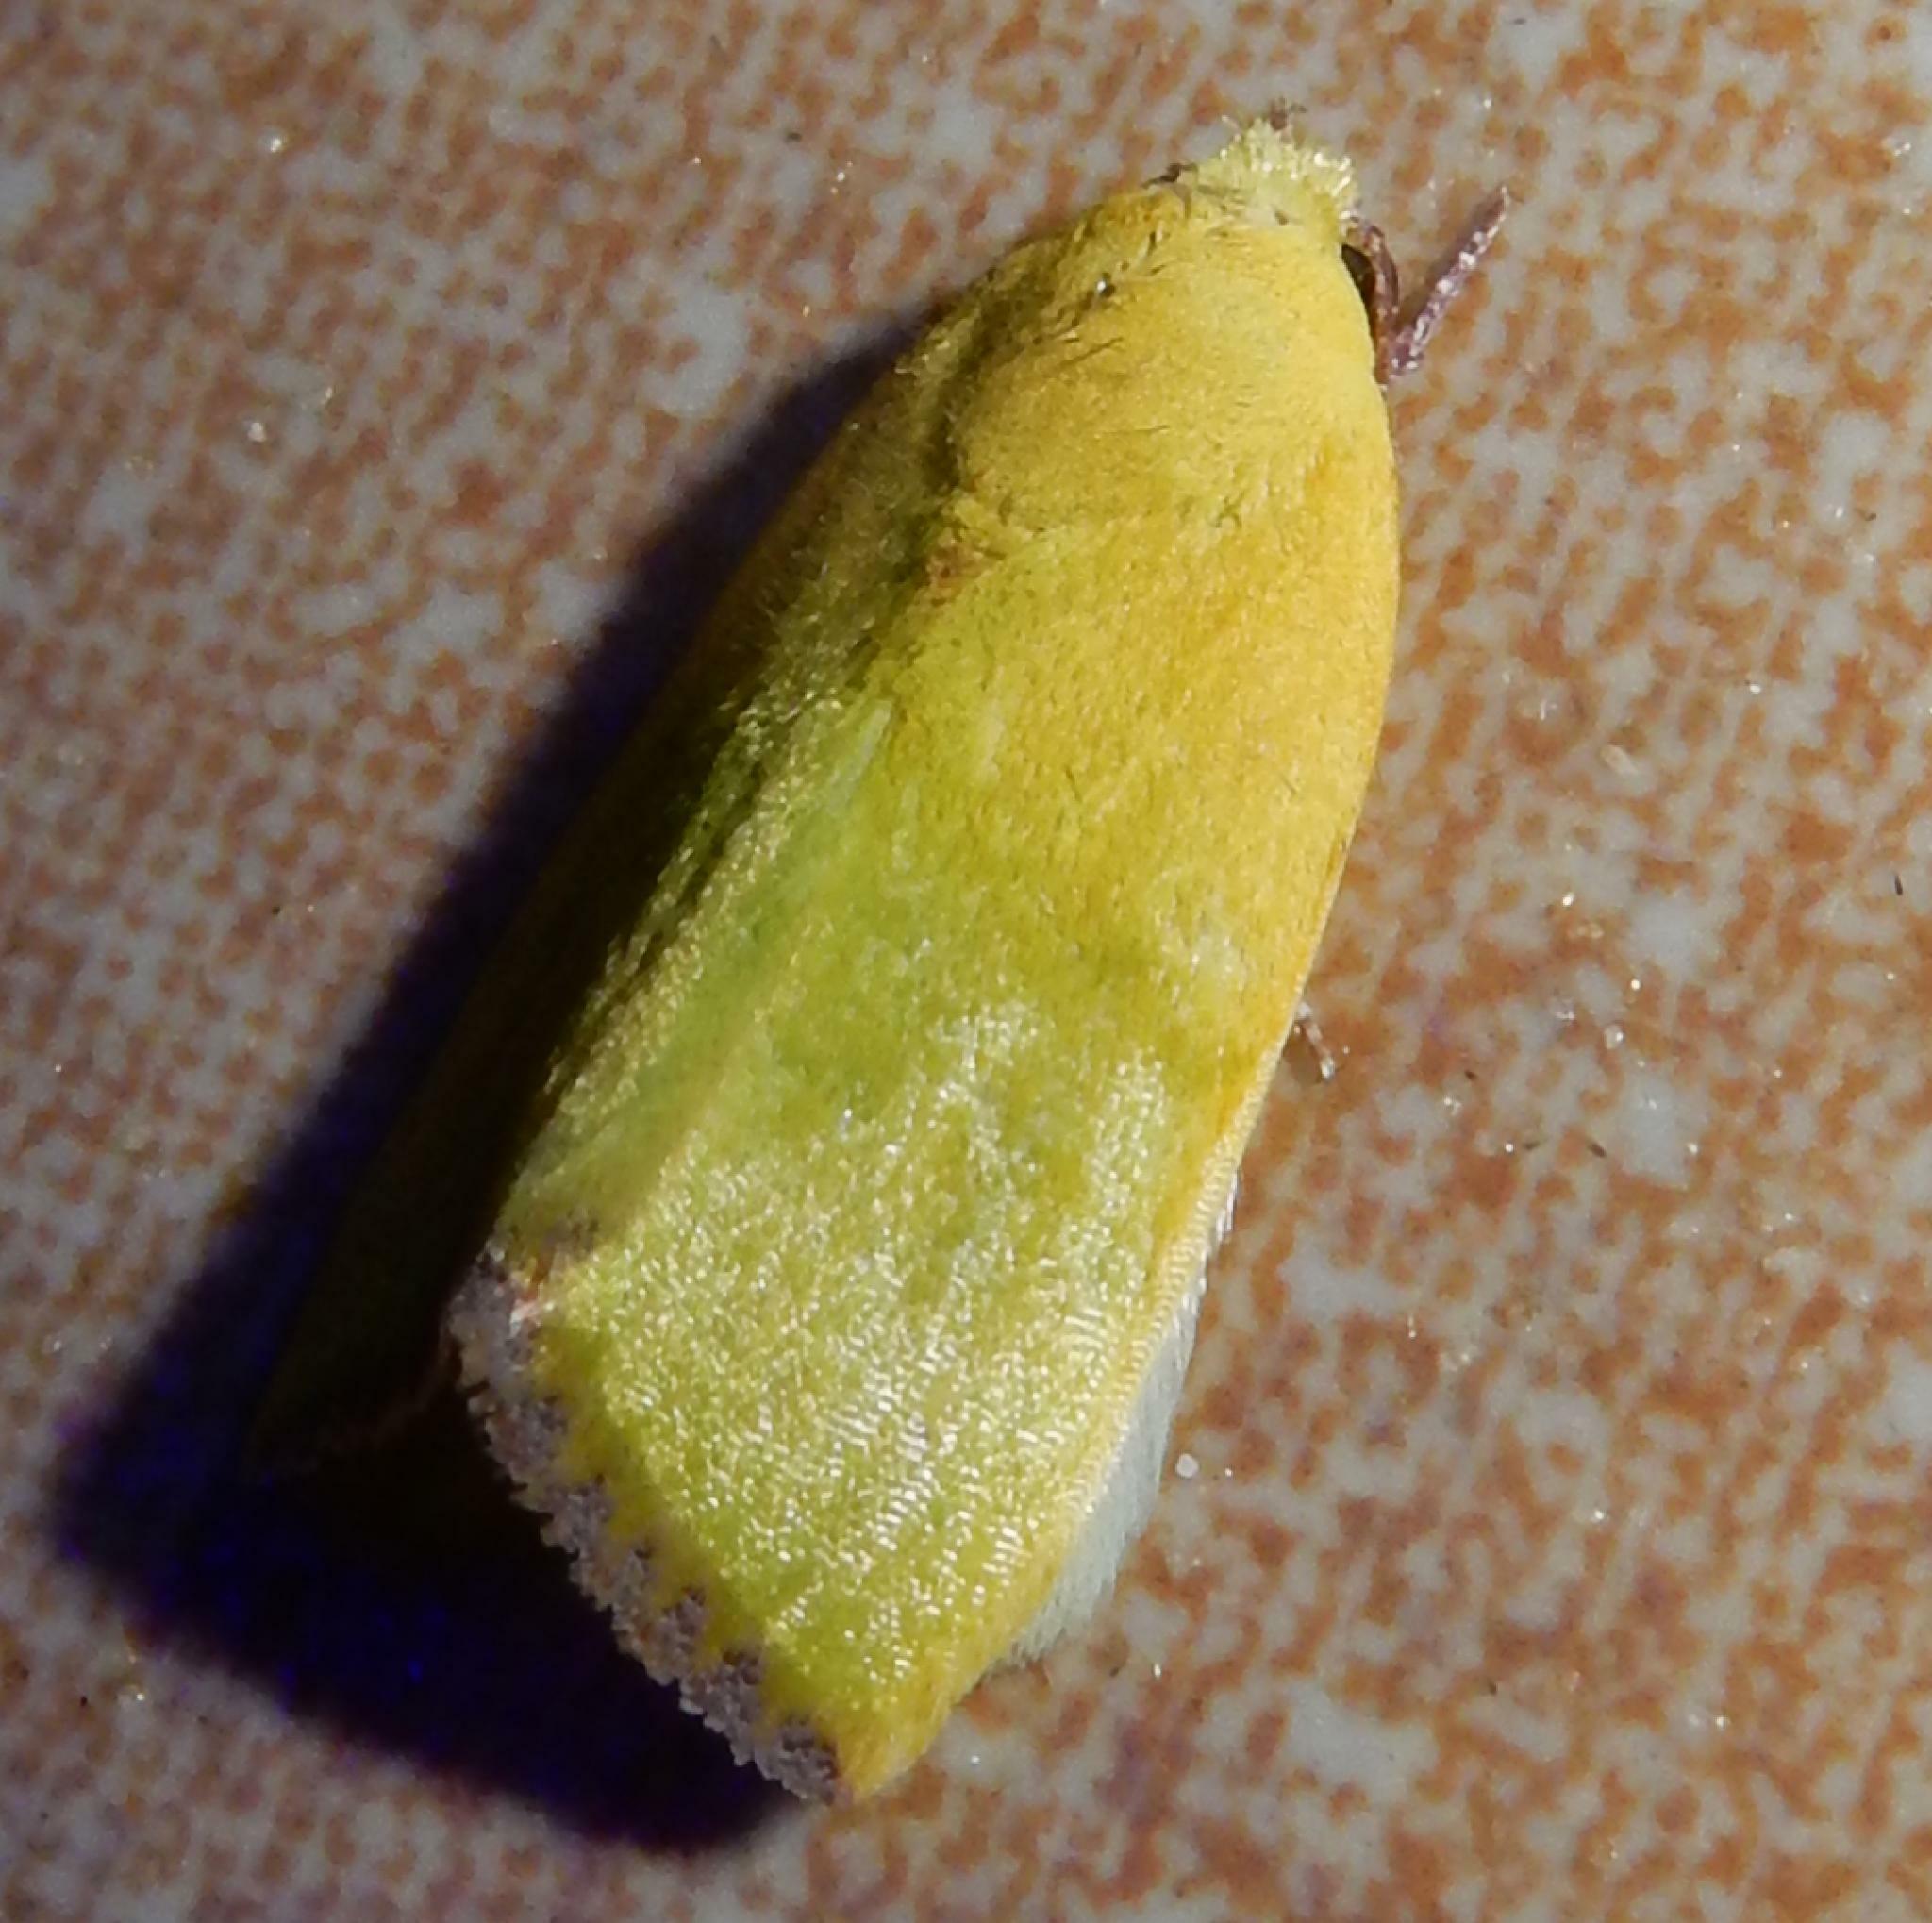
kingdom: Animalia
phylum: Arthropoda
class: Insecta
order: Lepidoptera
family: Nolidae
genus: Earias
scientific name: Earias biplaga
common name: Spiny bollworm
